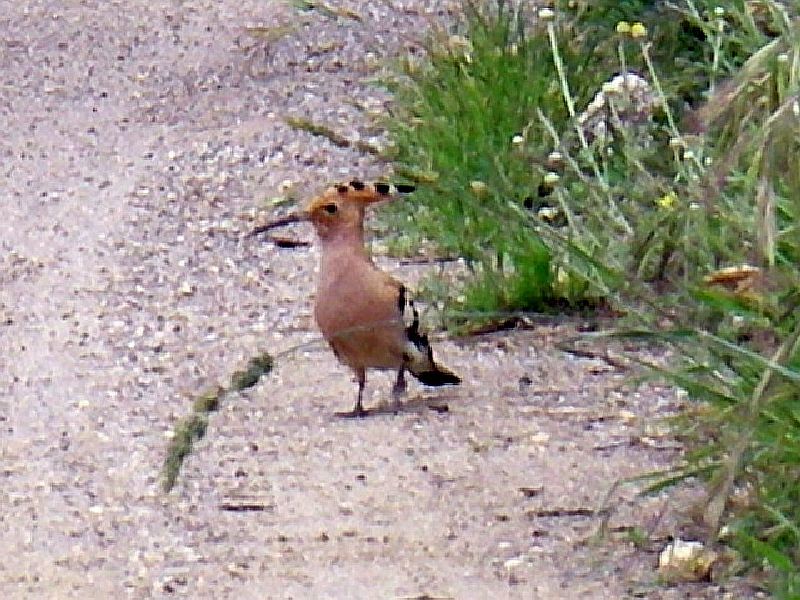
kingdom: Animalia
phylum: Chordata
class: Aves
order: Bucerotiformes
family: Upupidae
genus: Upupa
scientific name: Upupa epops
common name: Eurasian hoopoe
